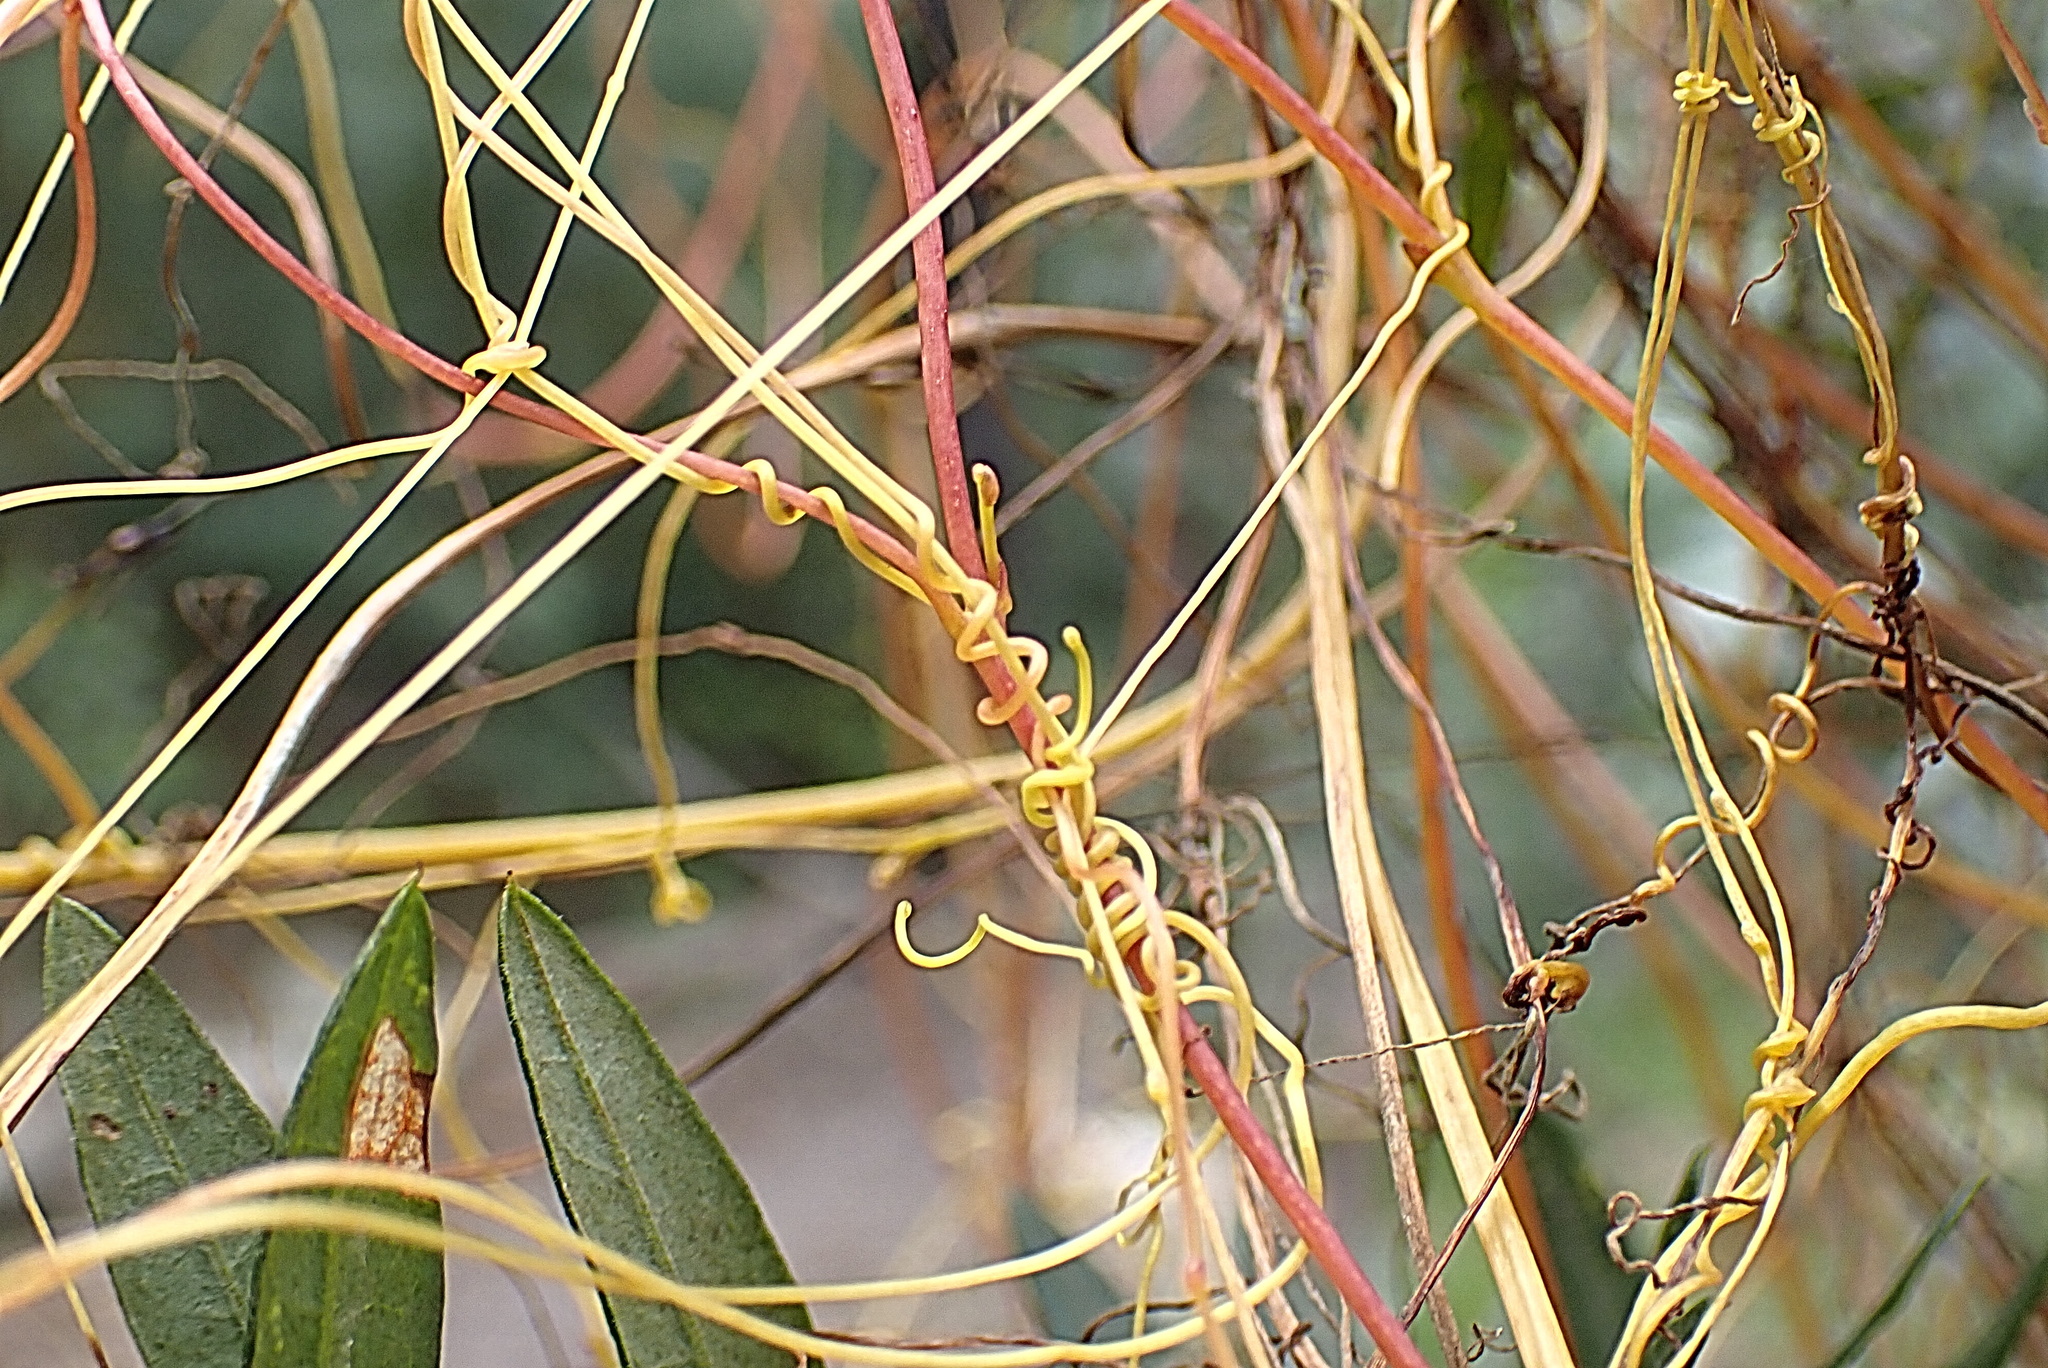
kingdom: Plantae
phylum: Tracheophyta
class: Magnoliopsida
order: Solanales
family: Convolvulaceae
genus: Cuscuta
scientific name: Cuscuta africana
